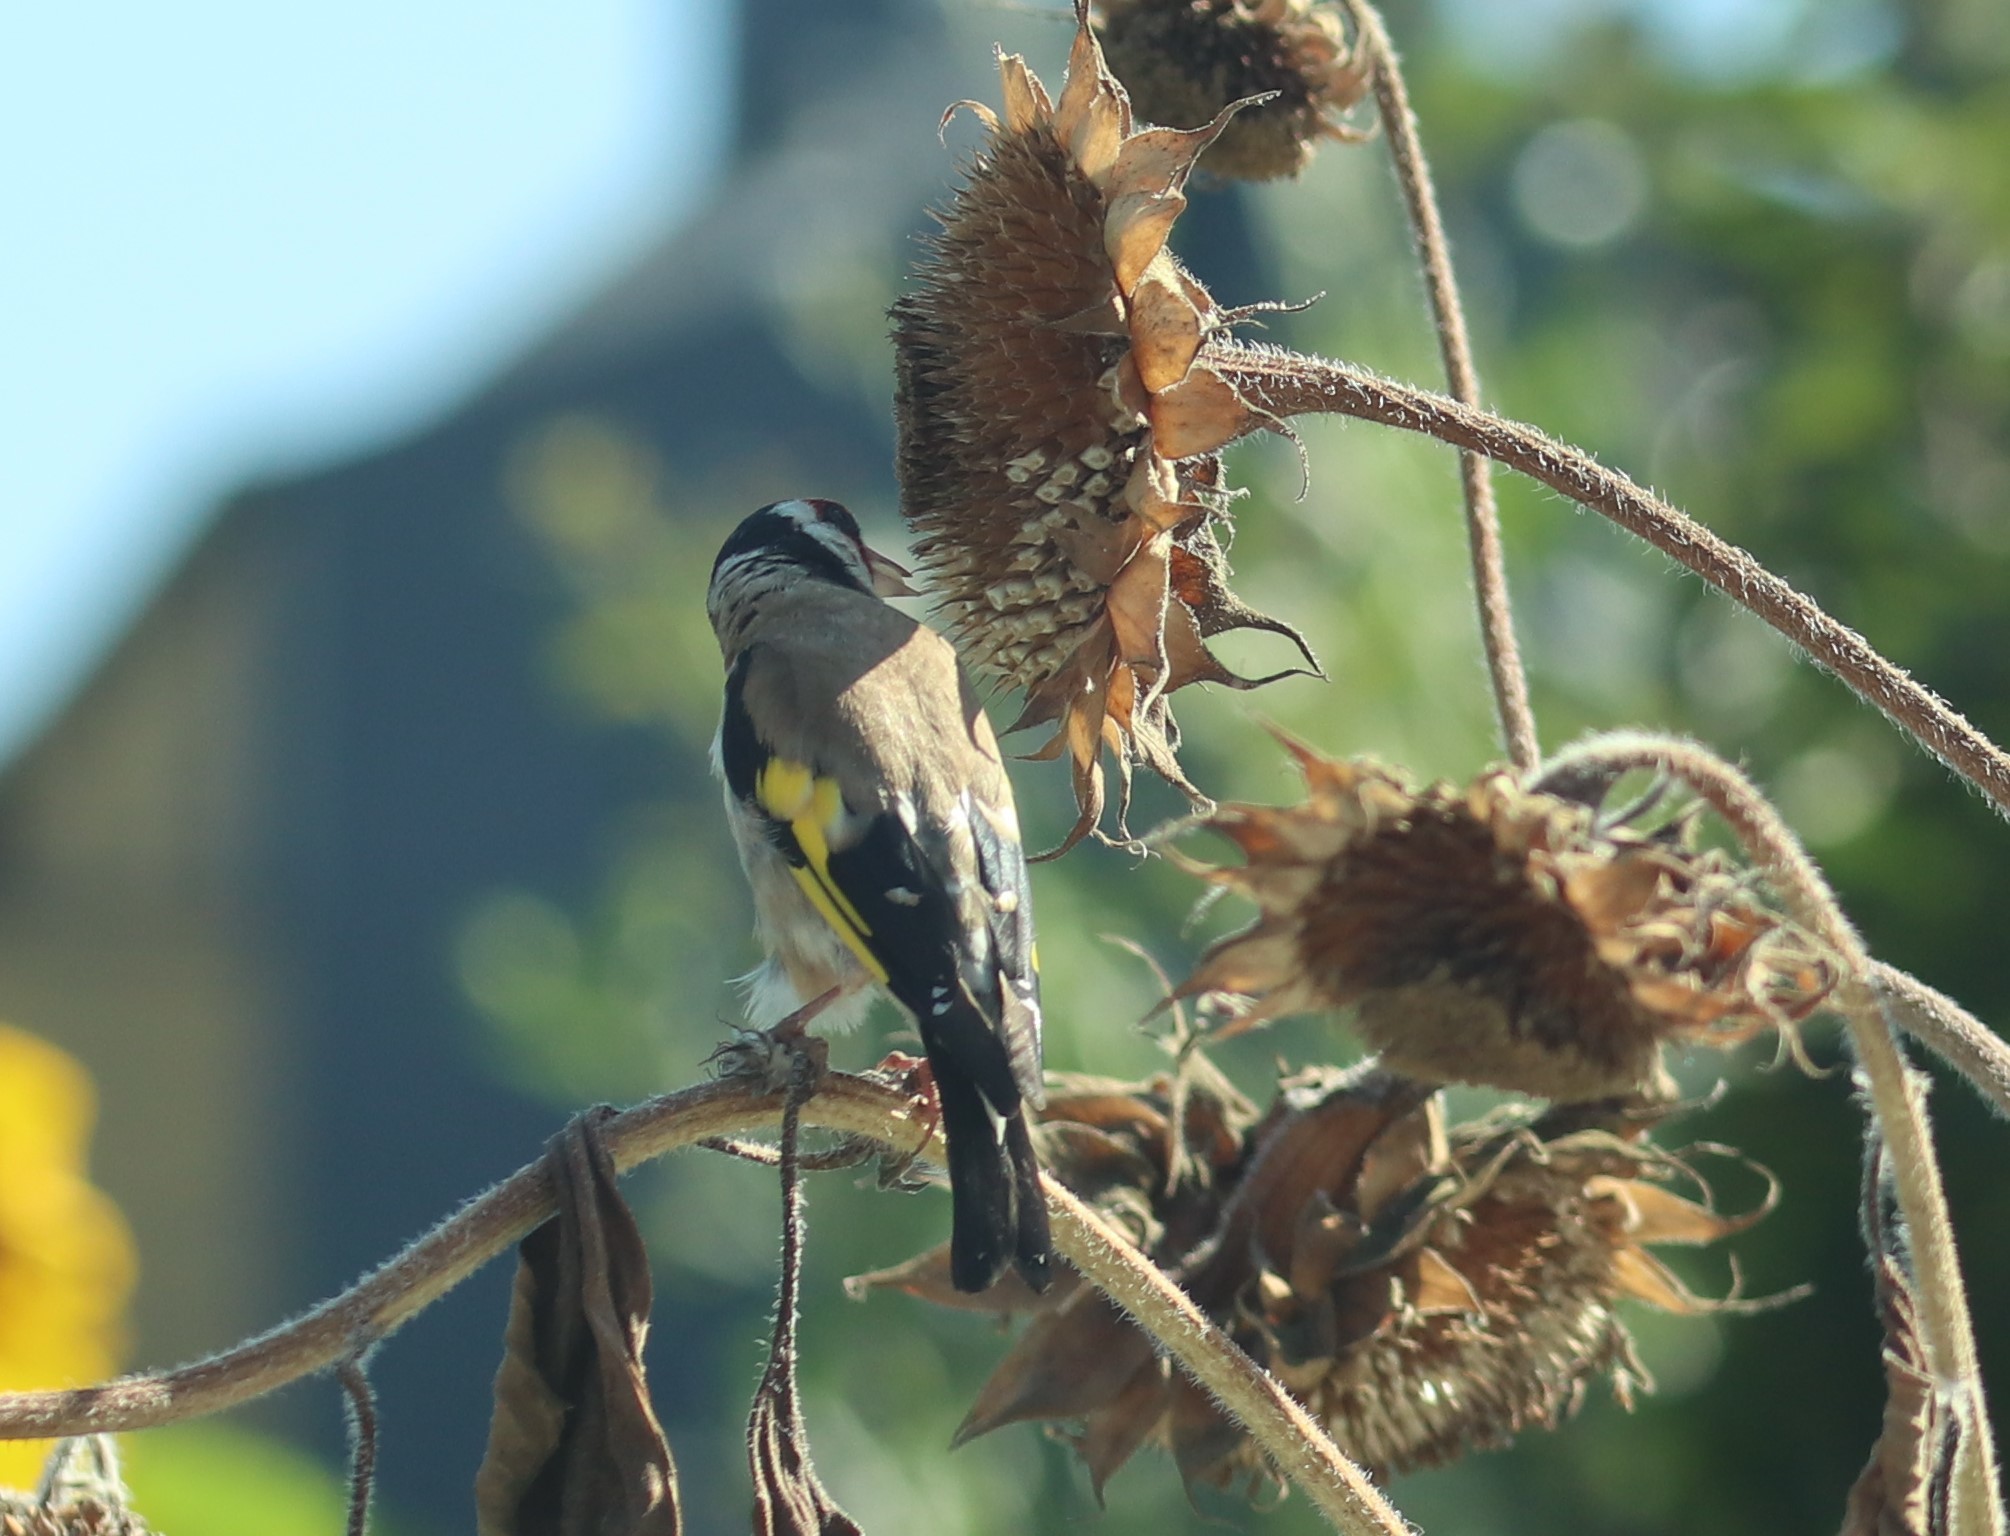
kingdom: Animalia
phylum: Chordata
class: Aves
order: Passeriformes
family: Fringillidae
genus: Carduelis
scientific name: Carduelis carduelis
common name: European goldfinch
